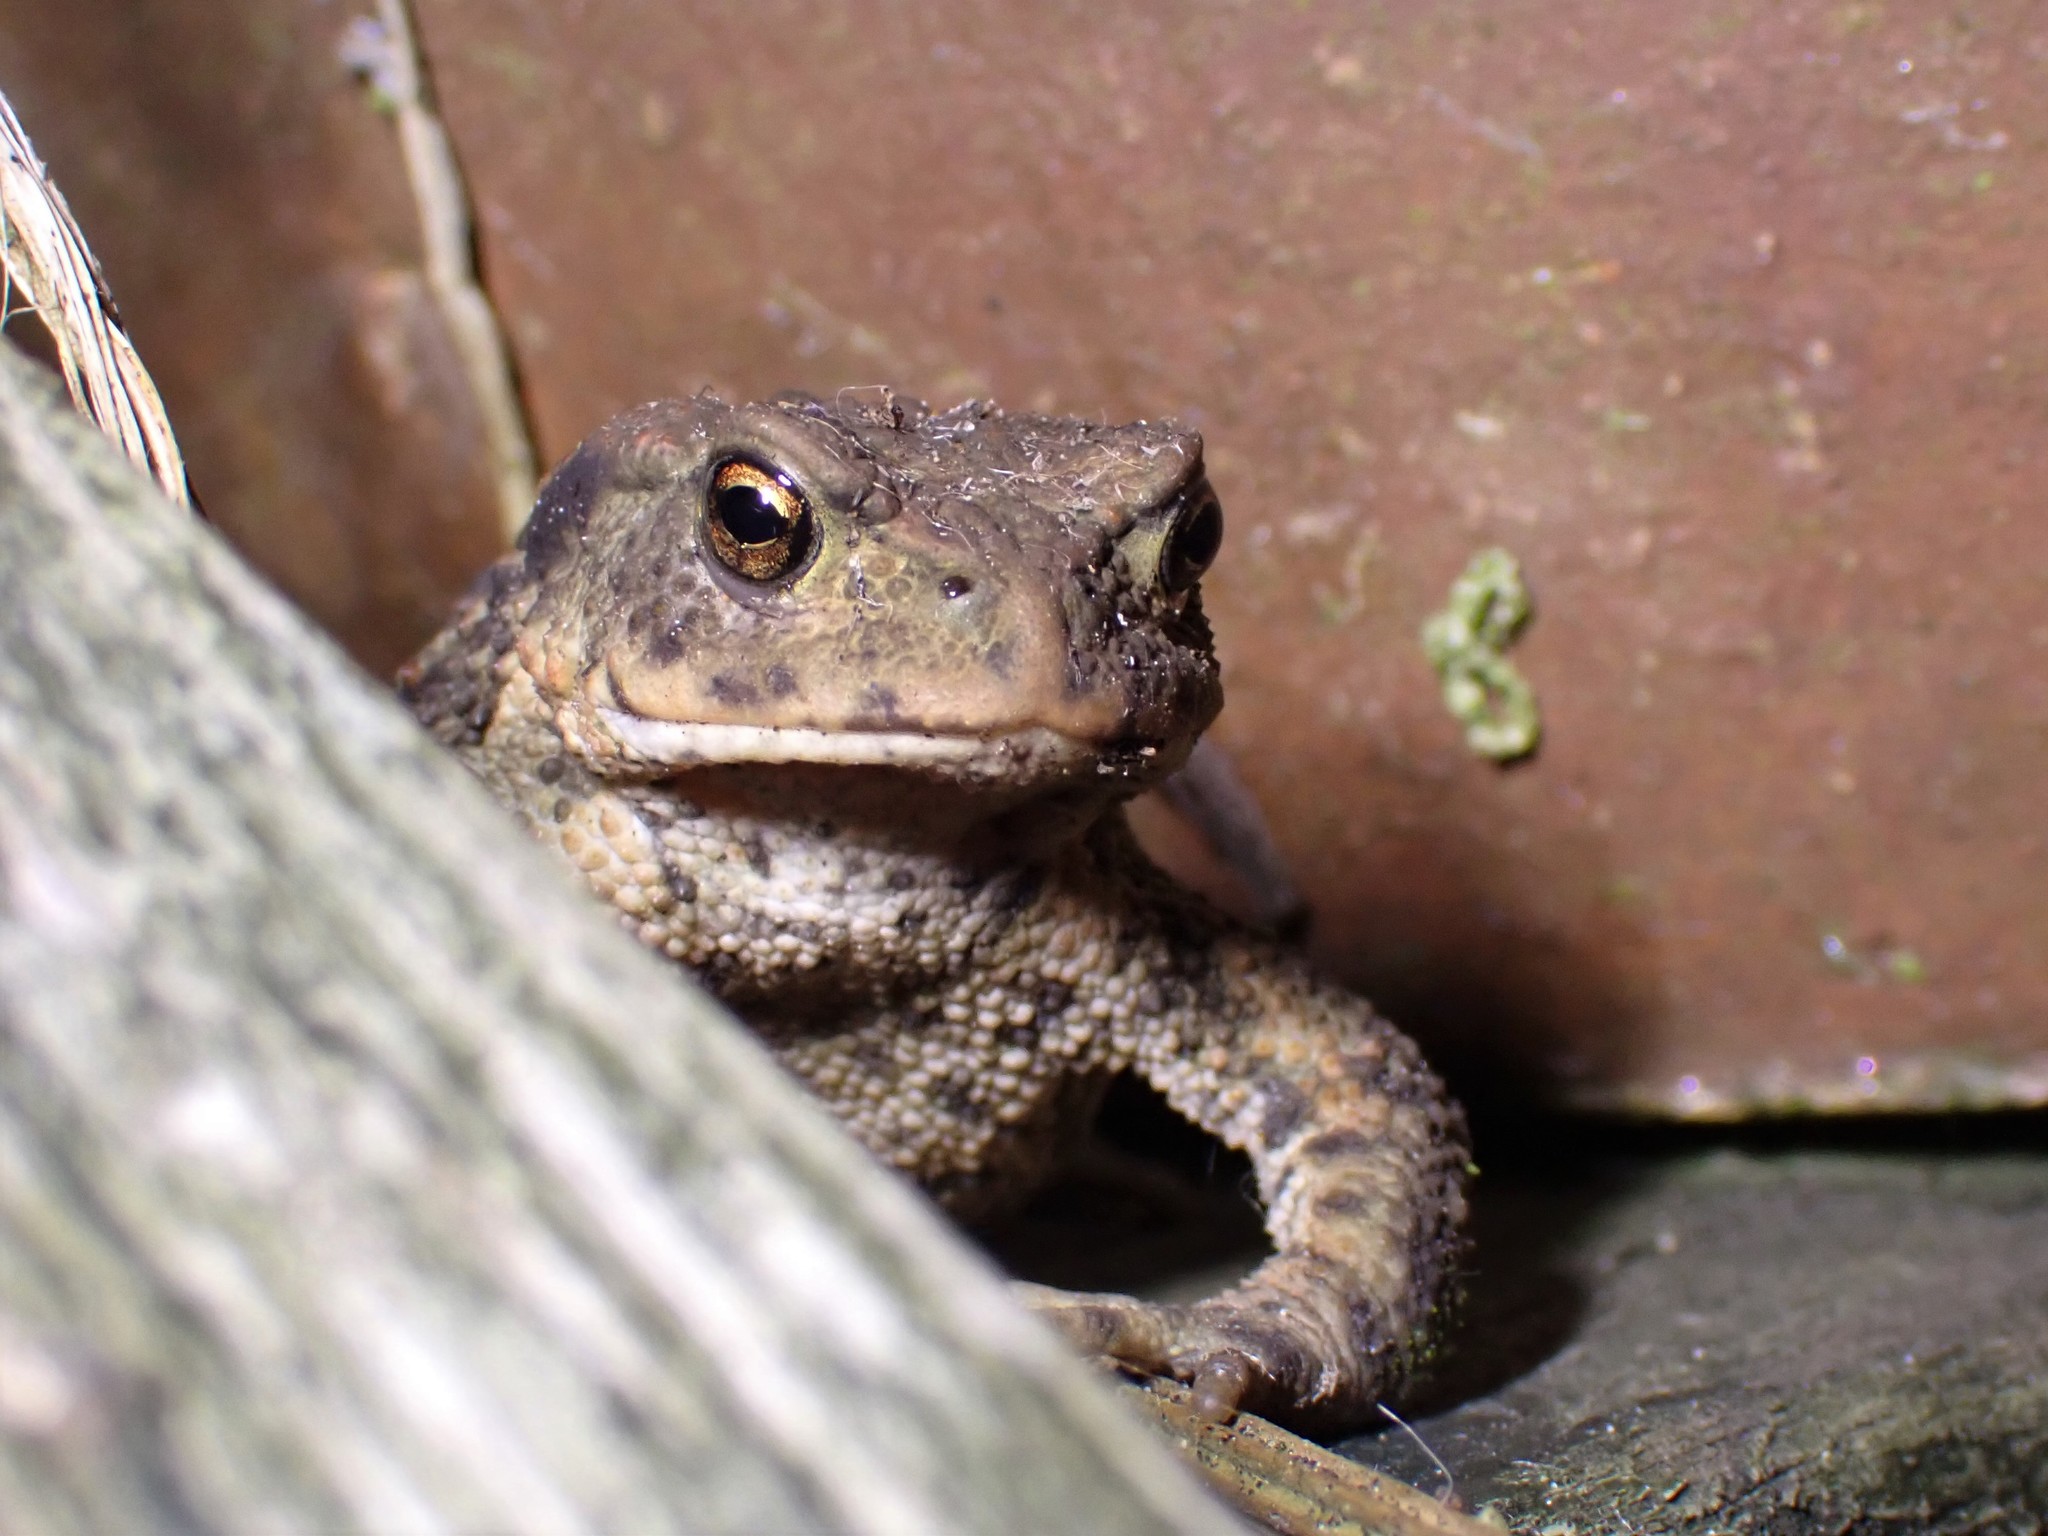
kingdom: Animalia
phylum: Chordata
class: Amphibia
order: Anura
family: Bufonidae
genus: Bufo
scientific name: Bufo bufo
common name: Common toad
